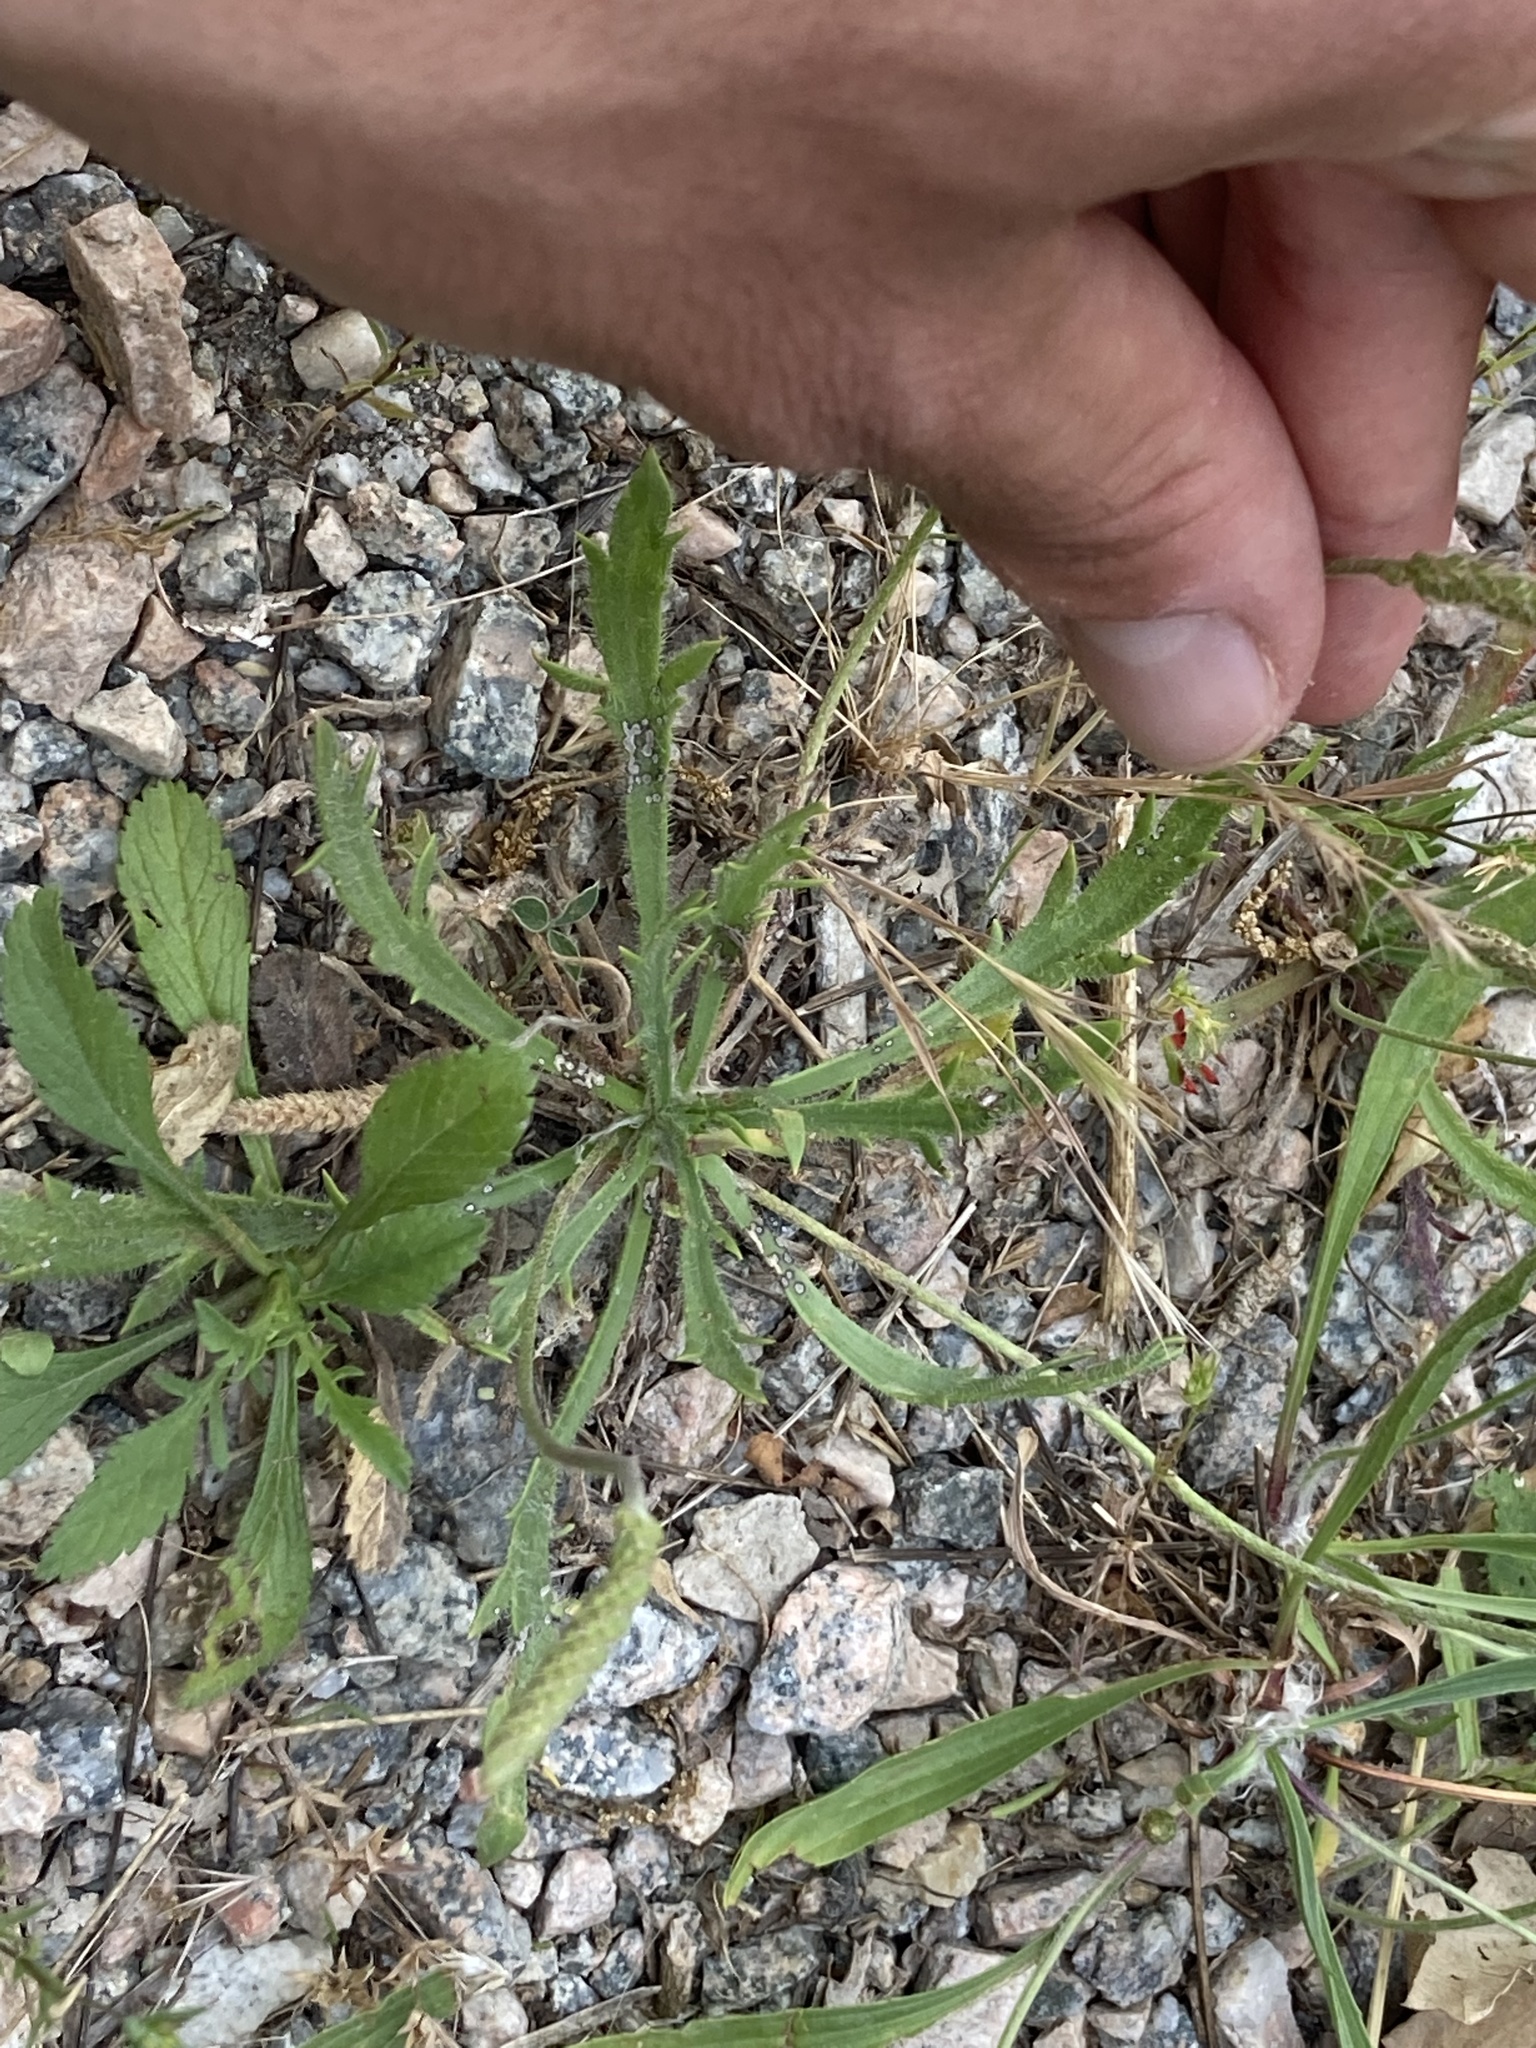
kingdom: Plantae
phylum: Tracheophyta
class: Magnoliopsida
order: Lamiales
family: Plantaginaceae
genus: Plantago
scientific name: Plantago coronopus
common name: Buck's-horn plantain
